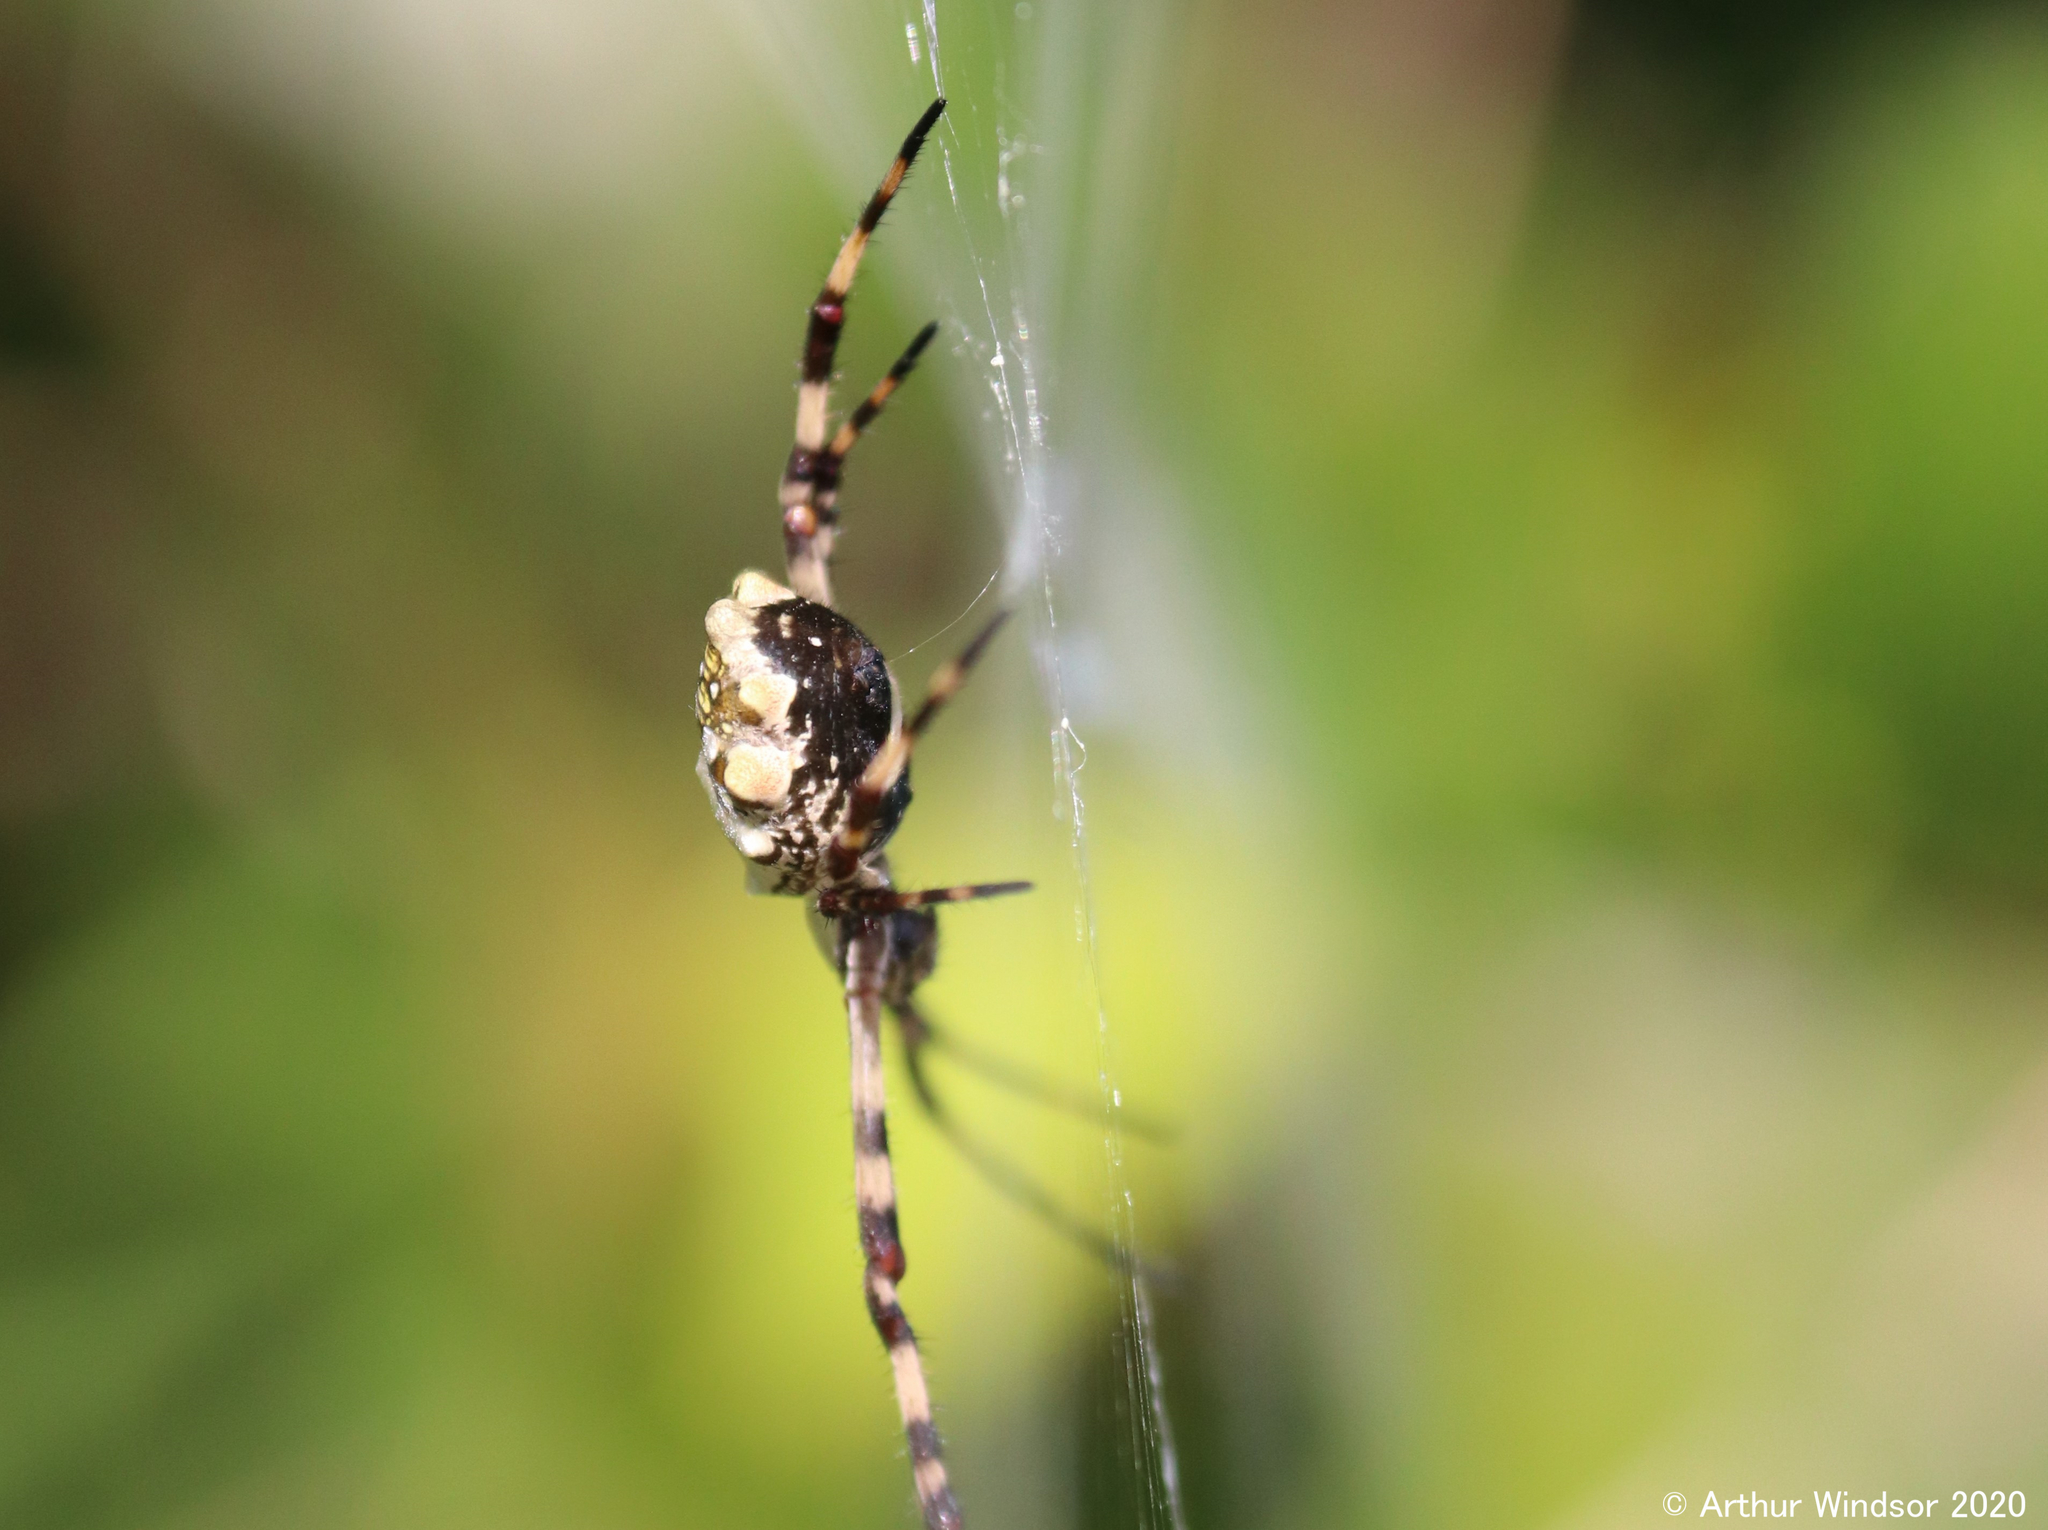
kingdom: Animalia
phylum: Arthropoda
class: Arachnida
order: Araneae
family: Araneidae
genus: Argiope
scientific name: Argiope argentata
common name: Orb weavers
